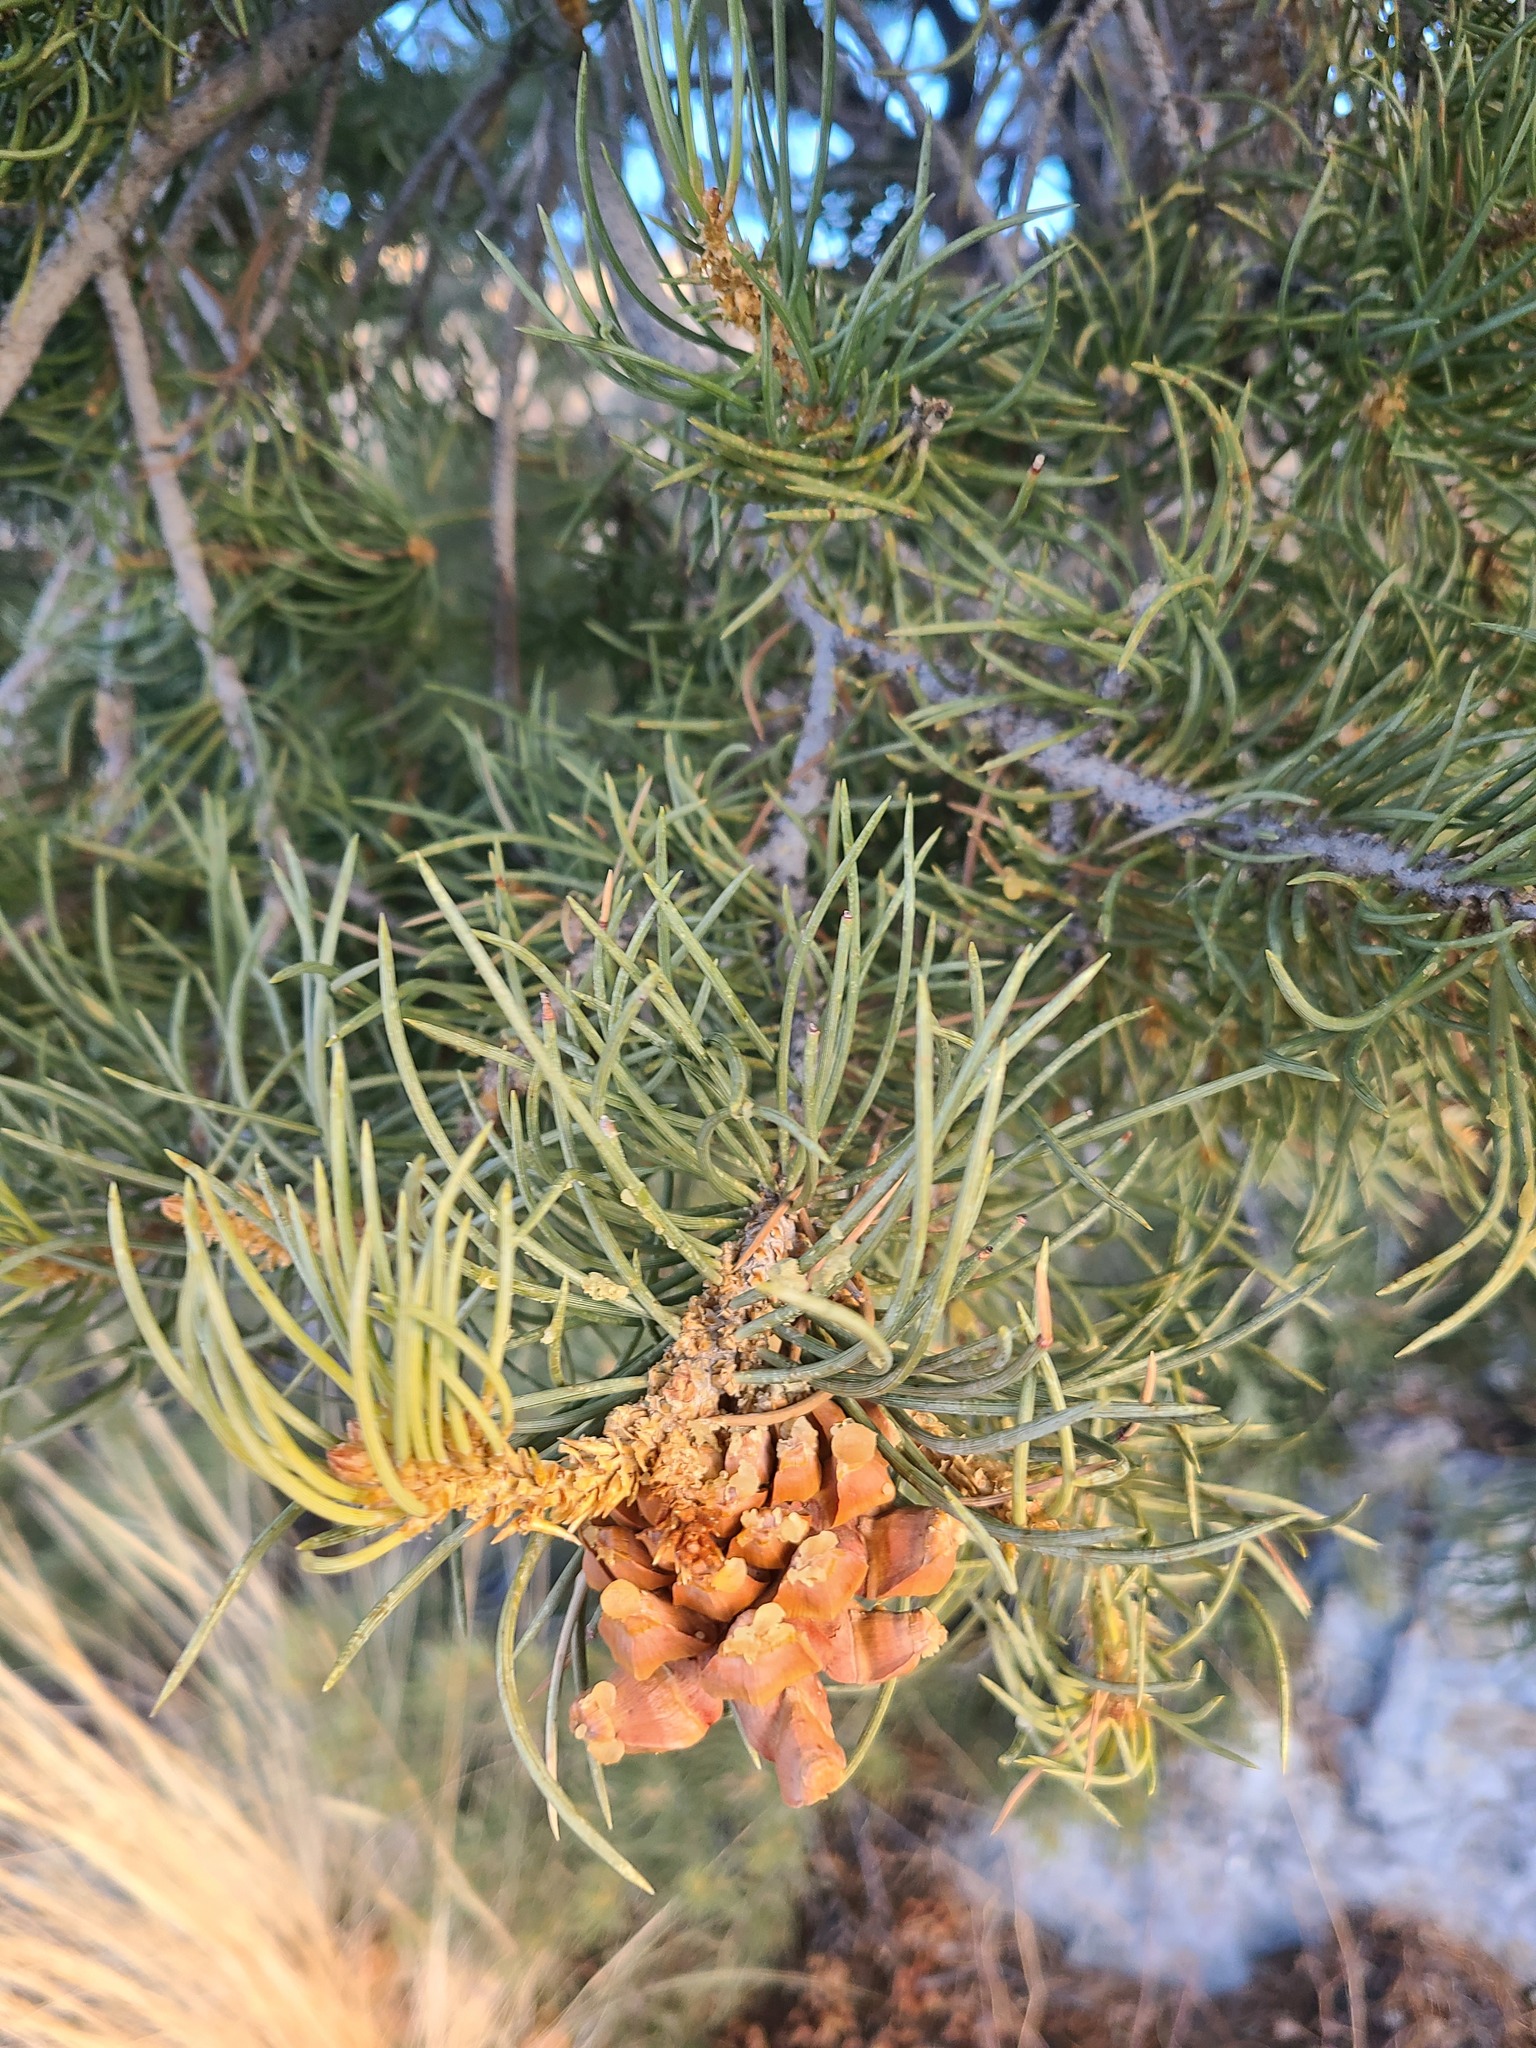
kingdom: Plantae
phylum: Tracheophyta
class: Pinopsida
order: Pinales
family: Pinaceae
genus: Pinus
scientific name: Pinus monophylla
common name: One-leaved nut pine
